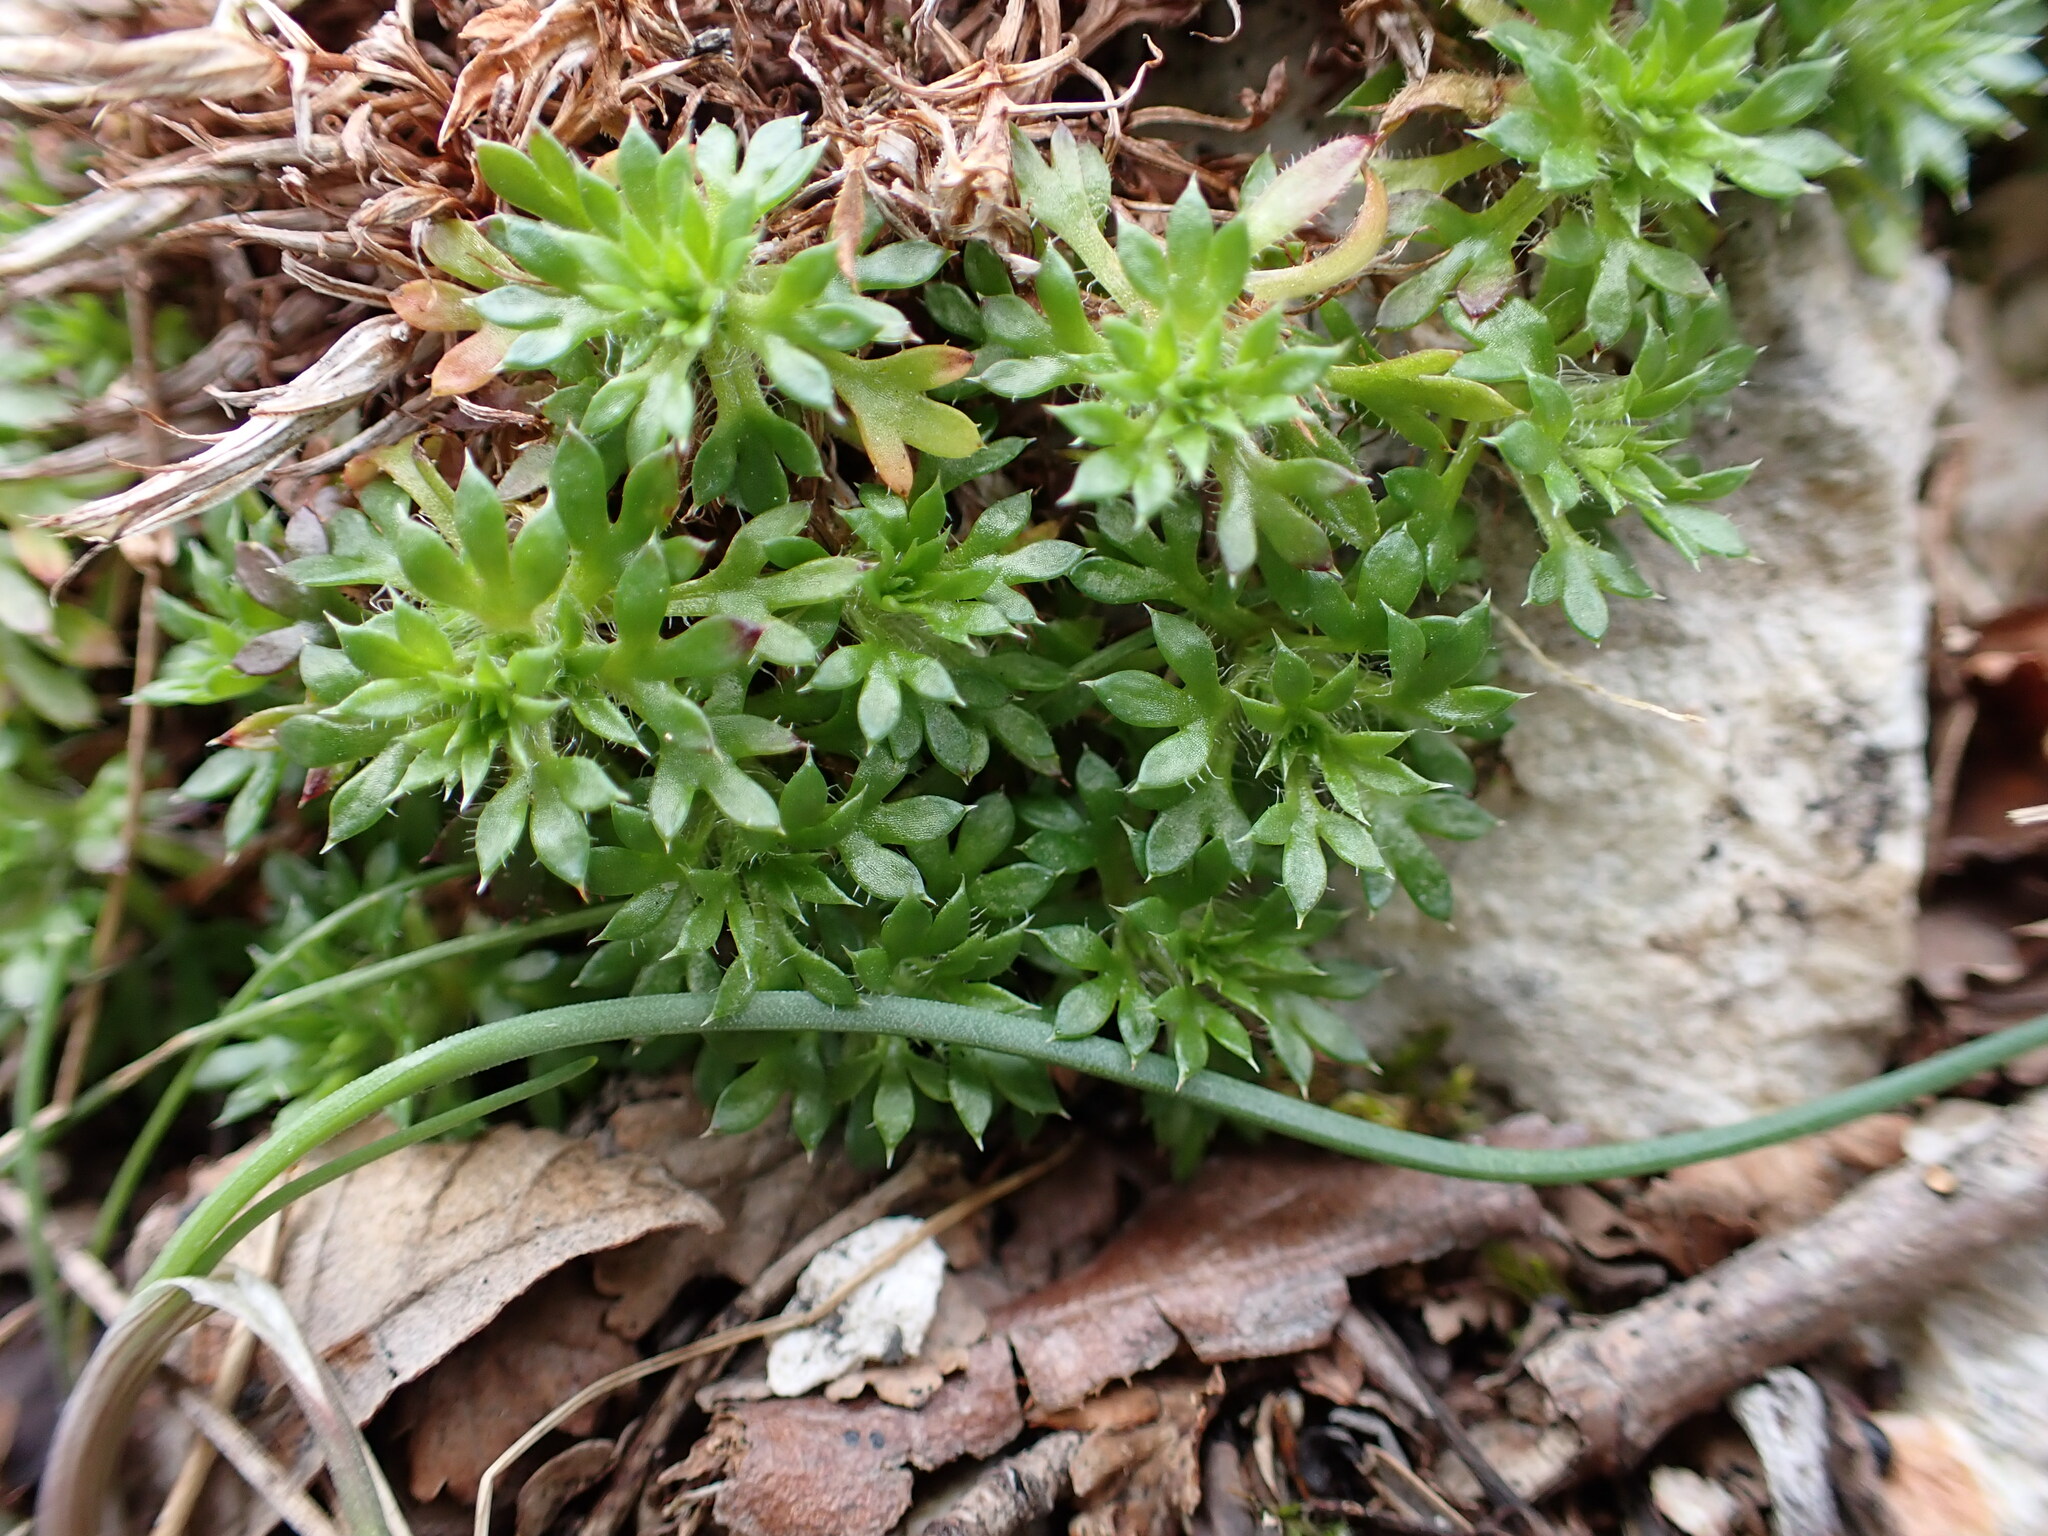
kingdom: Plantae
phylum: Tracheophyta
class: Magnoliopsida
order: Saxifragales
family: Saxifragaceae
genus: Saxifraga
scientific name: Saxifraga fragosoi
